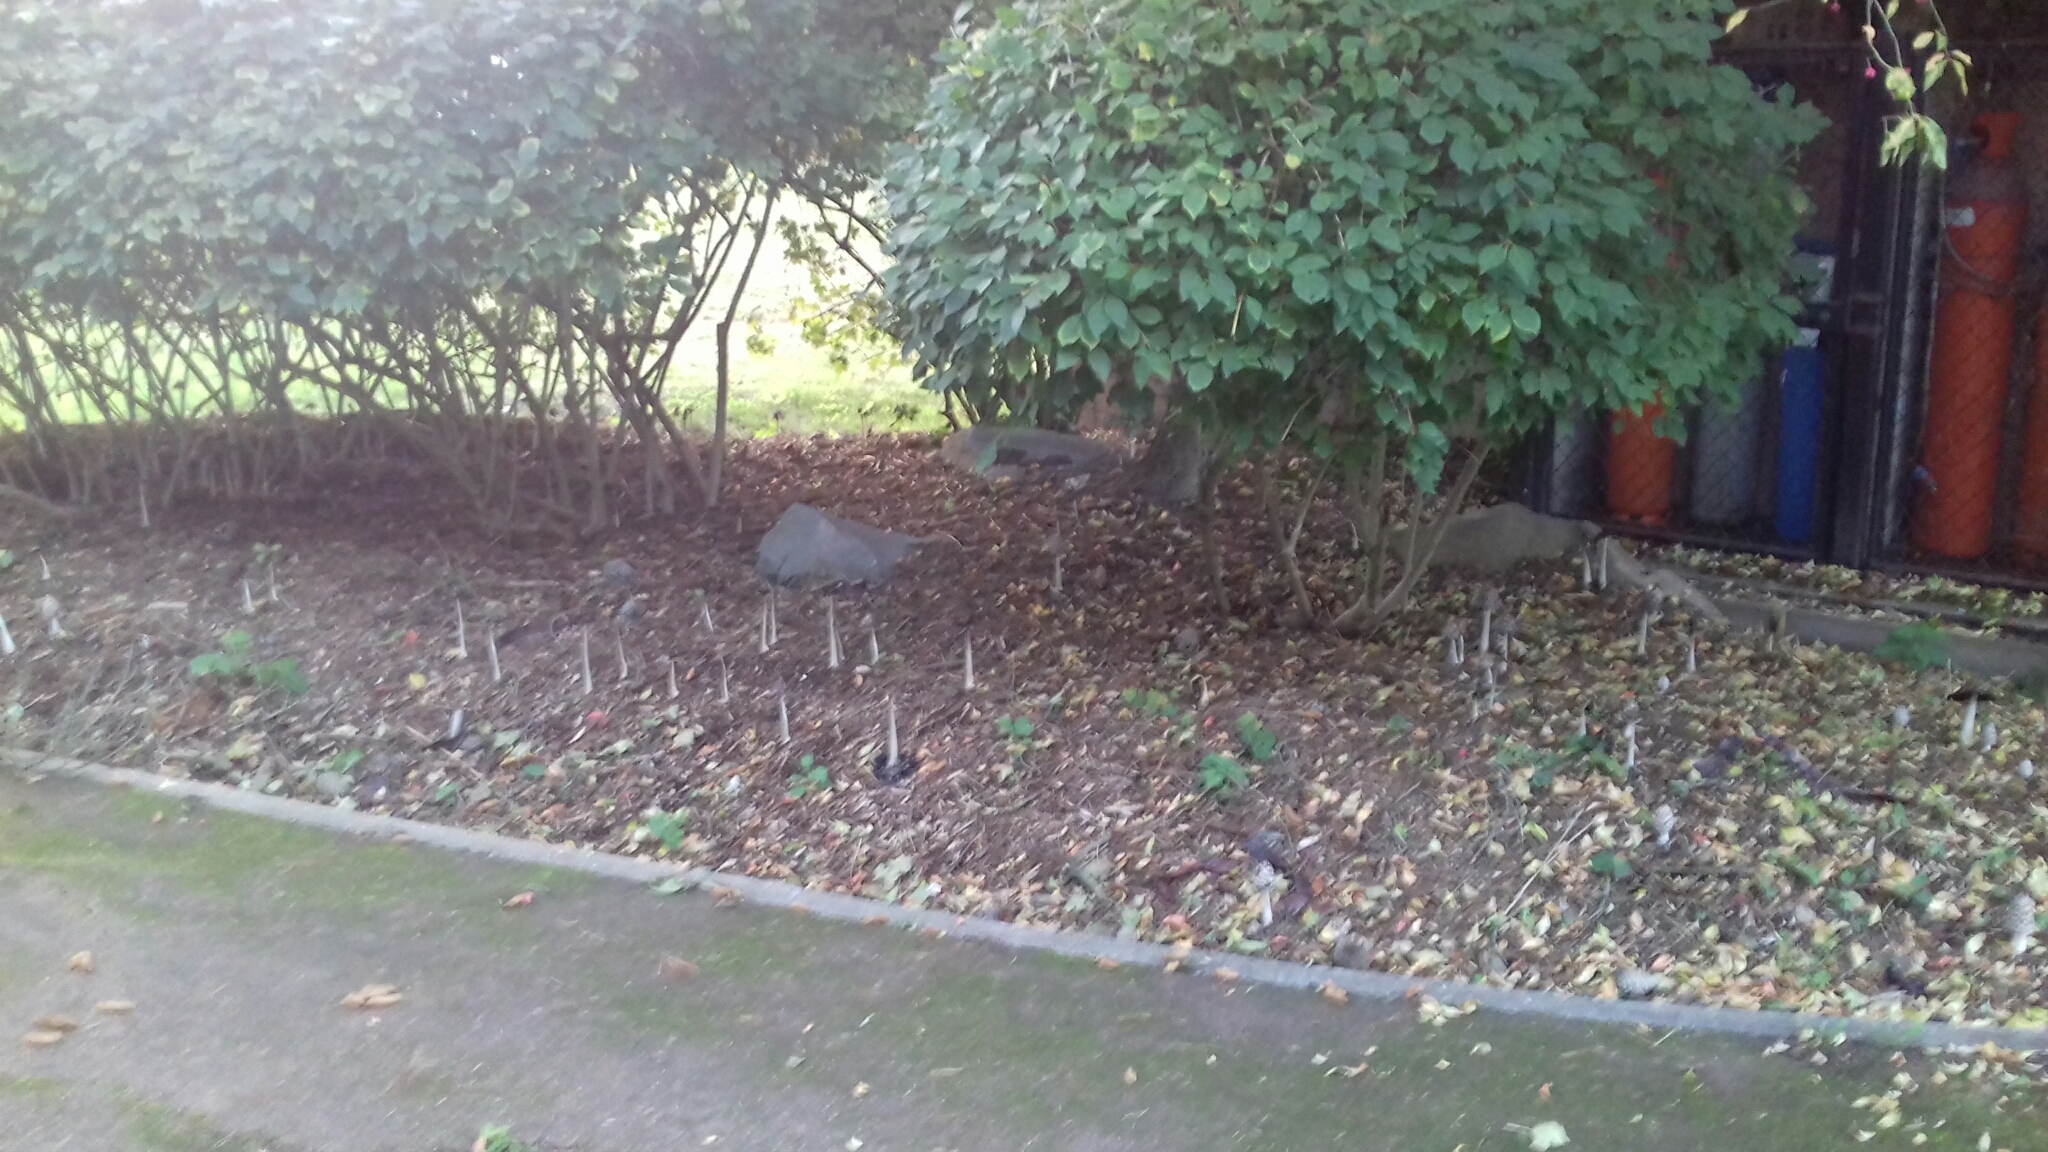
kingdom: Fungi
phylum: Basidiomycota
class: Agaricomycetes
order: Agaricales
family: Psathyrellaceae
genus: Coprinopsis
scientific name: Coprinopsis picacea
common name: Magpie inkcap
